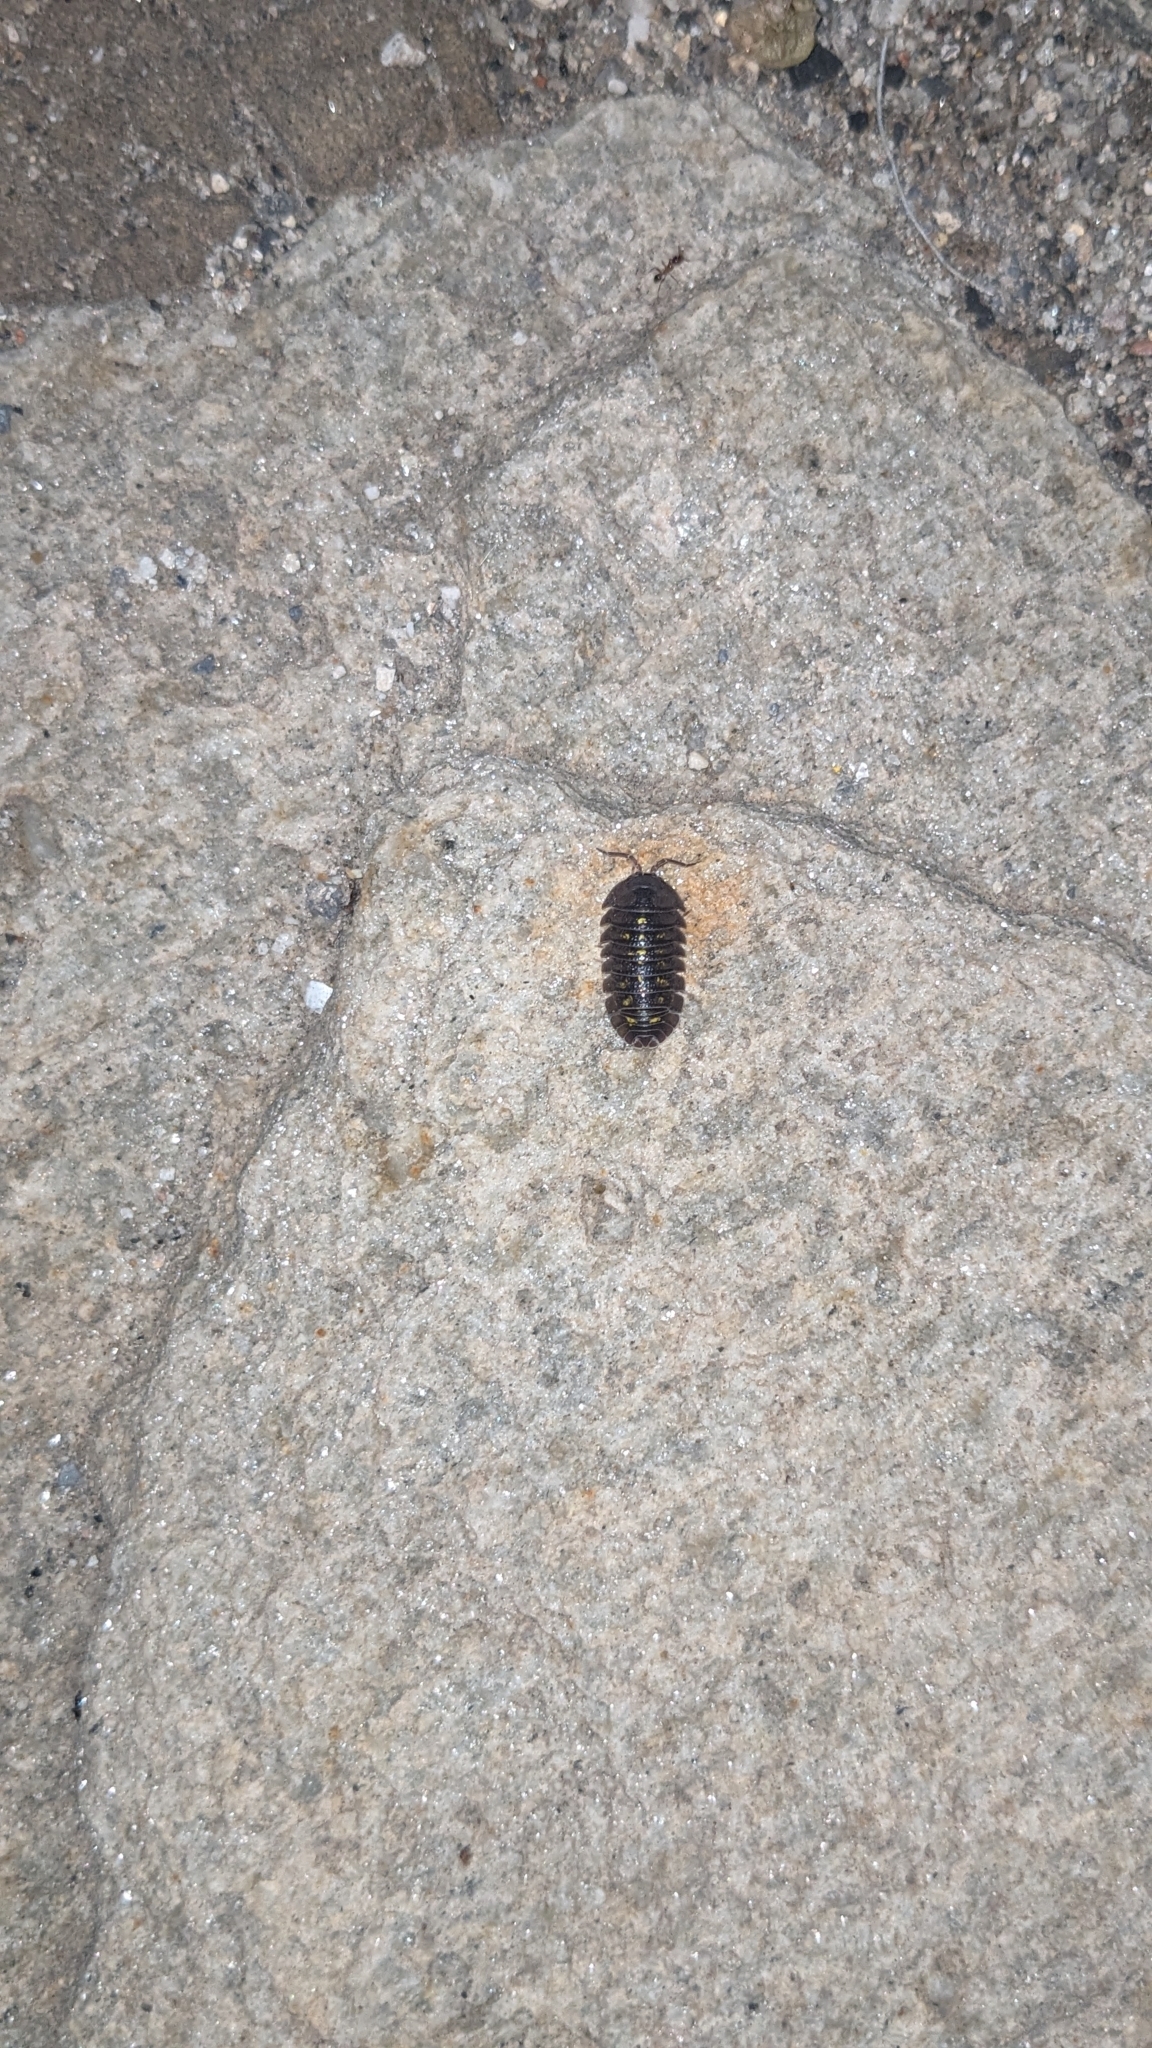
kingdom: Animalia
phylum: Arthropoda
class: Malacostraca
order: Isopoda
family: Armadillidiidae
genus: Armadillidium
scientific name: Armadillidium granulatum
